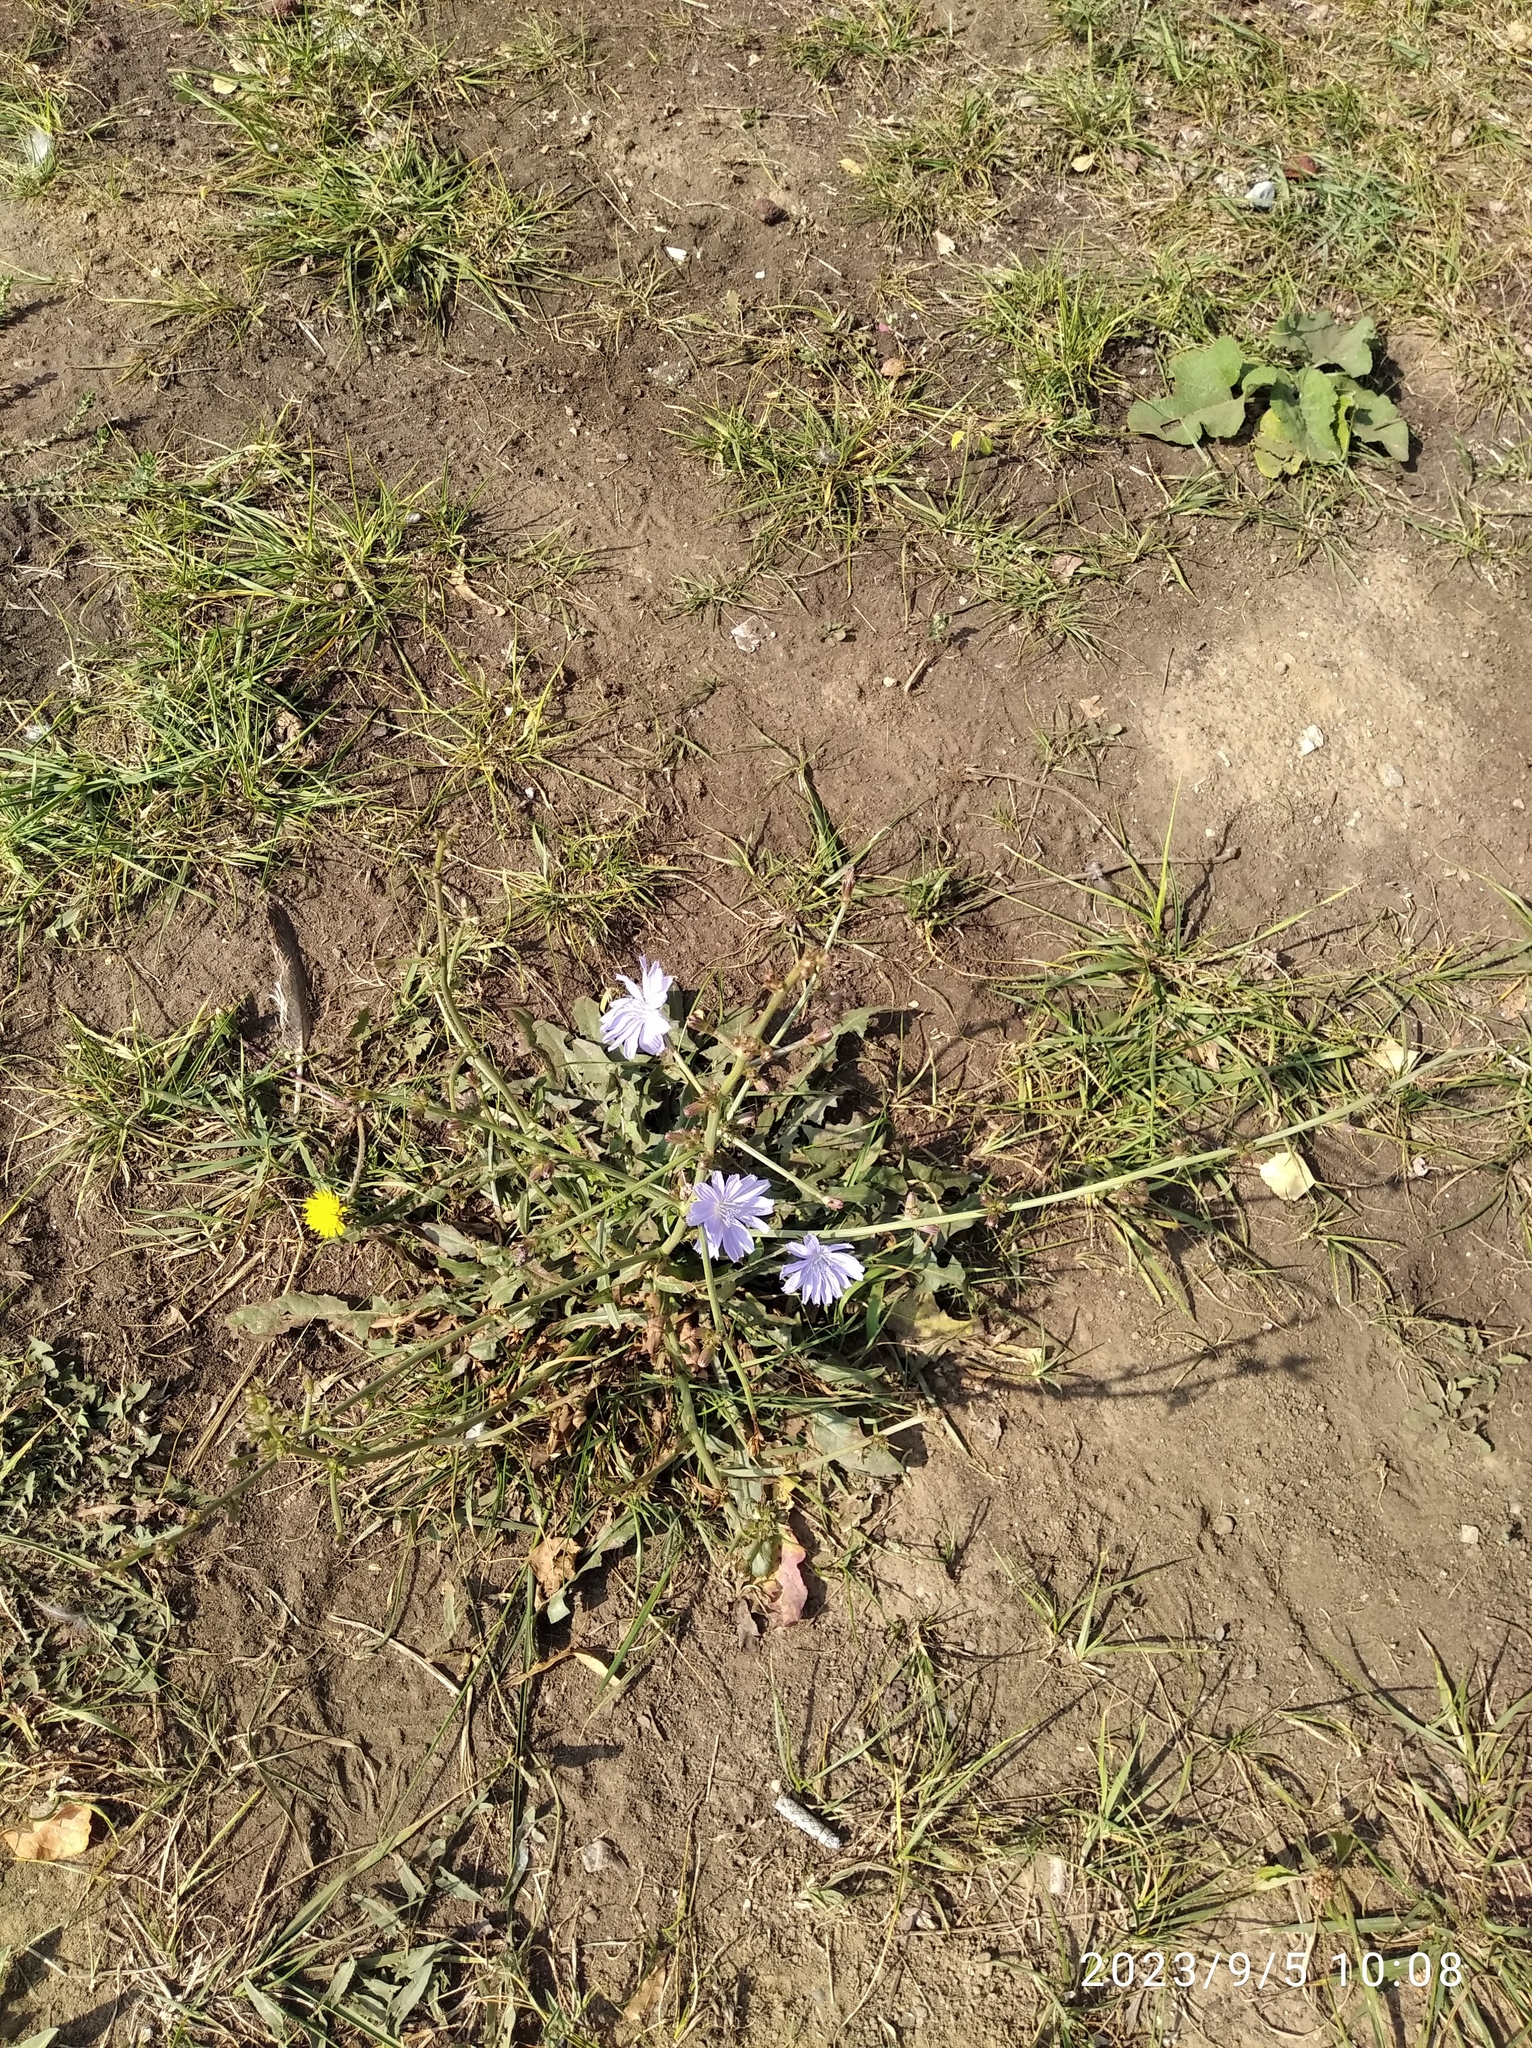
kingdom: Plantae
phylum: Tracheophyta
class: Magnoliopsida
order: Asterales
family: Asteraceae
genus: Cichorium
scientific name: Cichorium intybus
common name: Chicory
